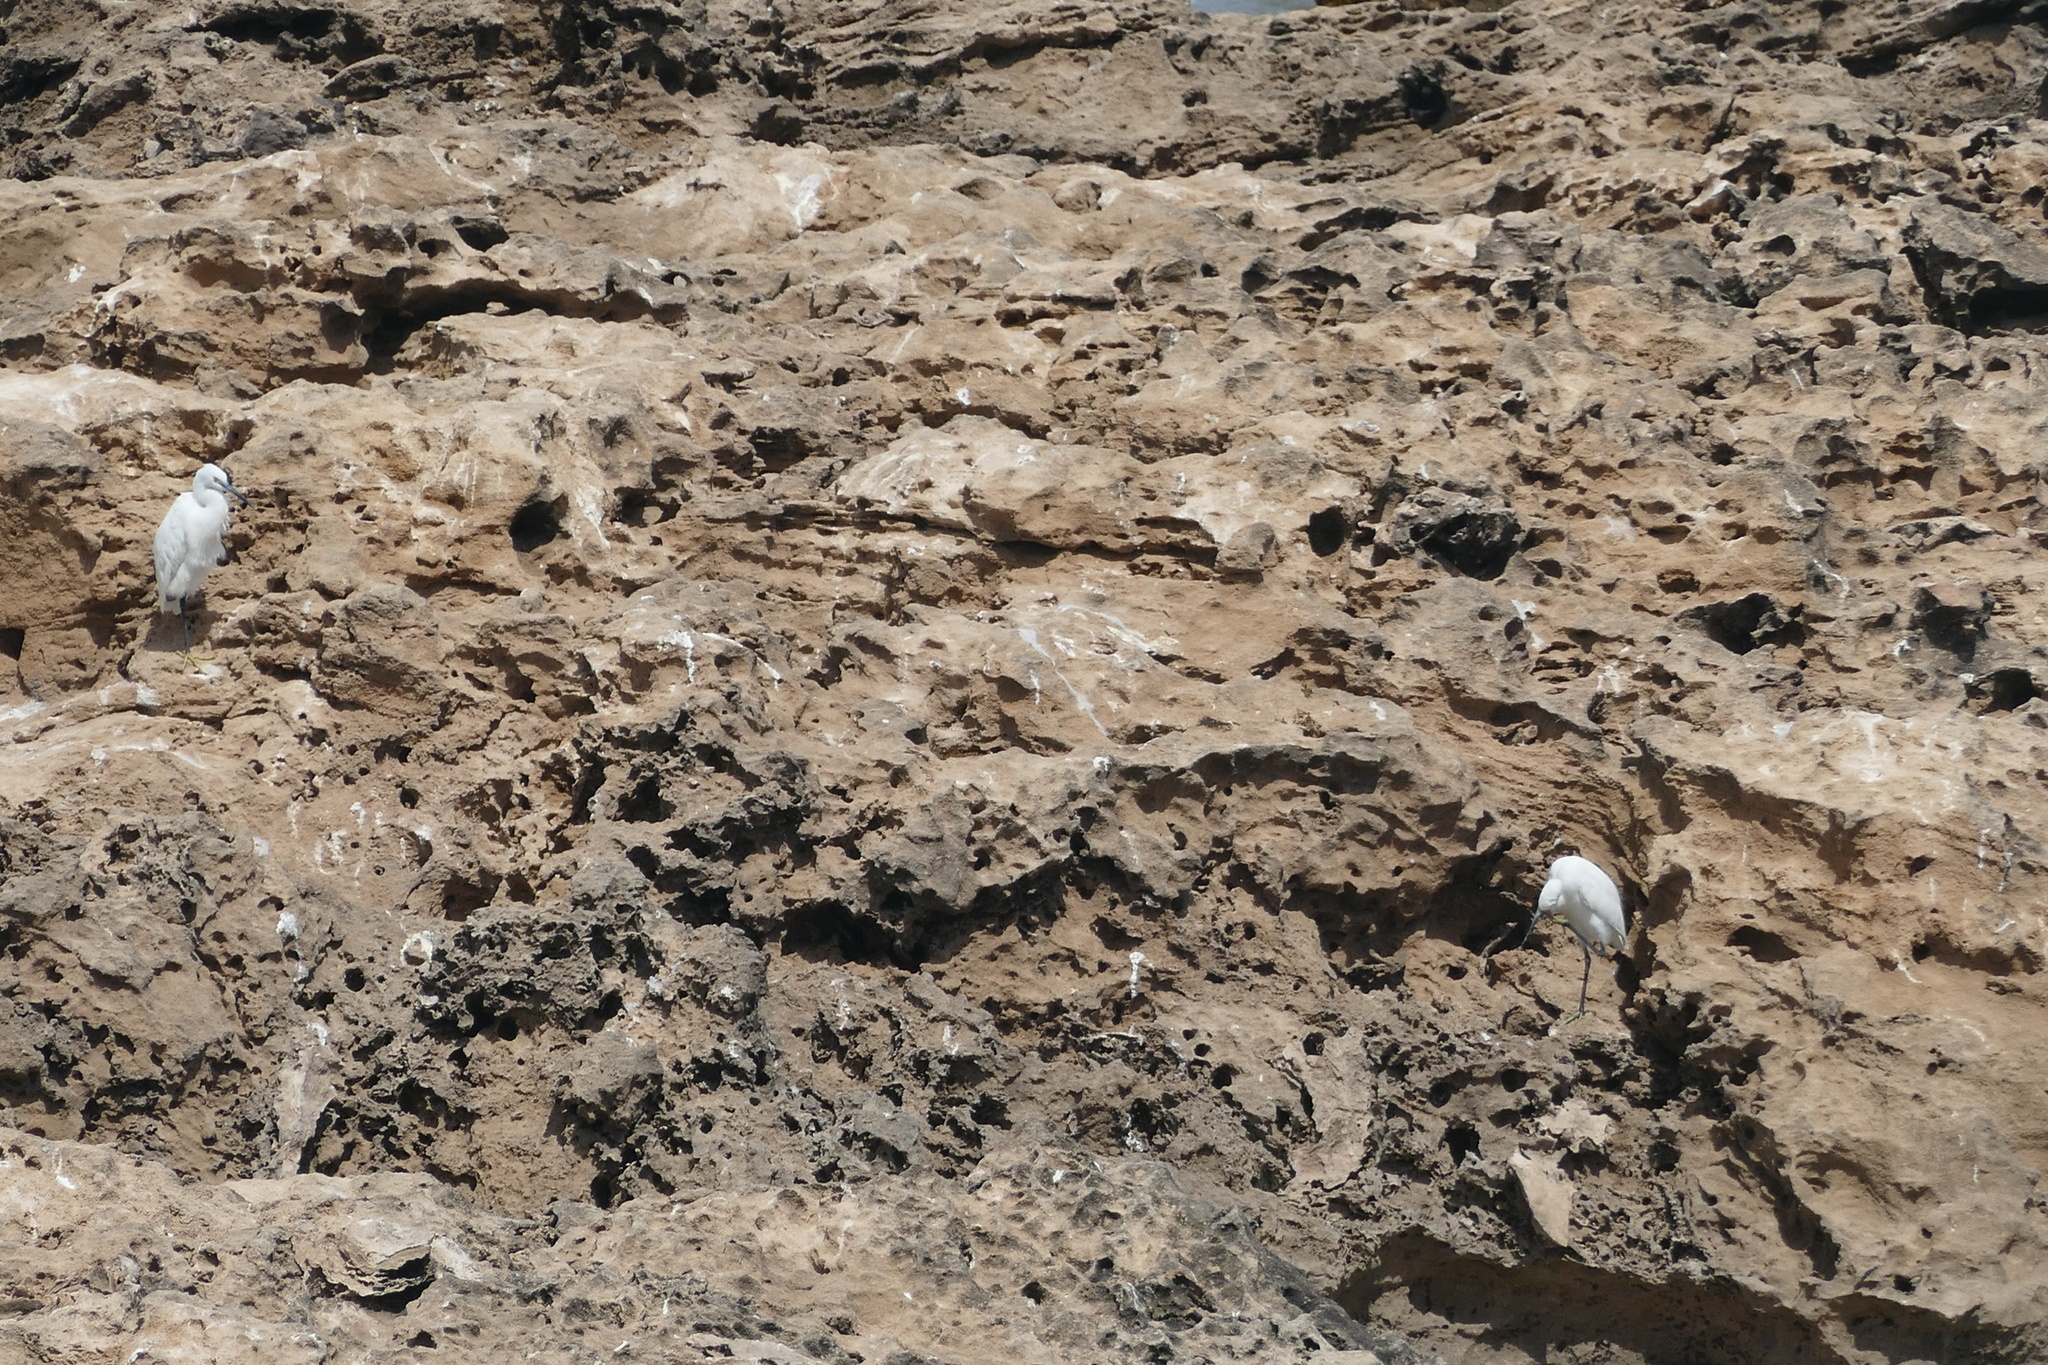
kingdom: Animalia
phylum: Chordata
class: Aves
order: Pelecaniformes
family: Ardeidae
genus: Egretta
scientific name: Egretta garzetta
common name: Little egret
